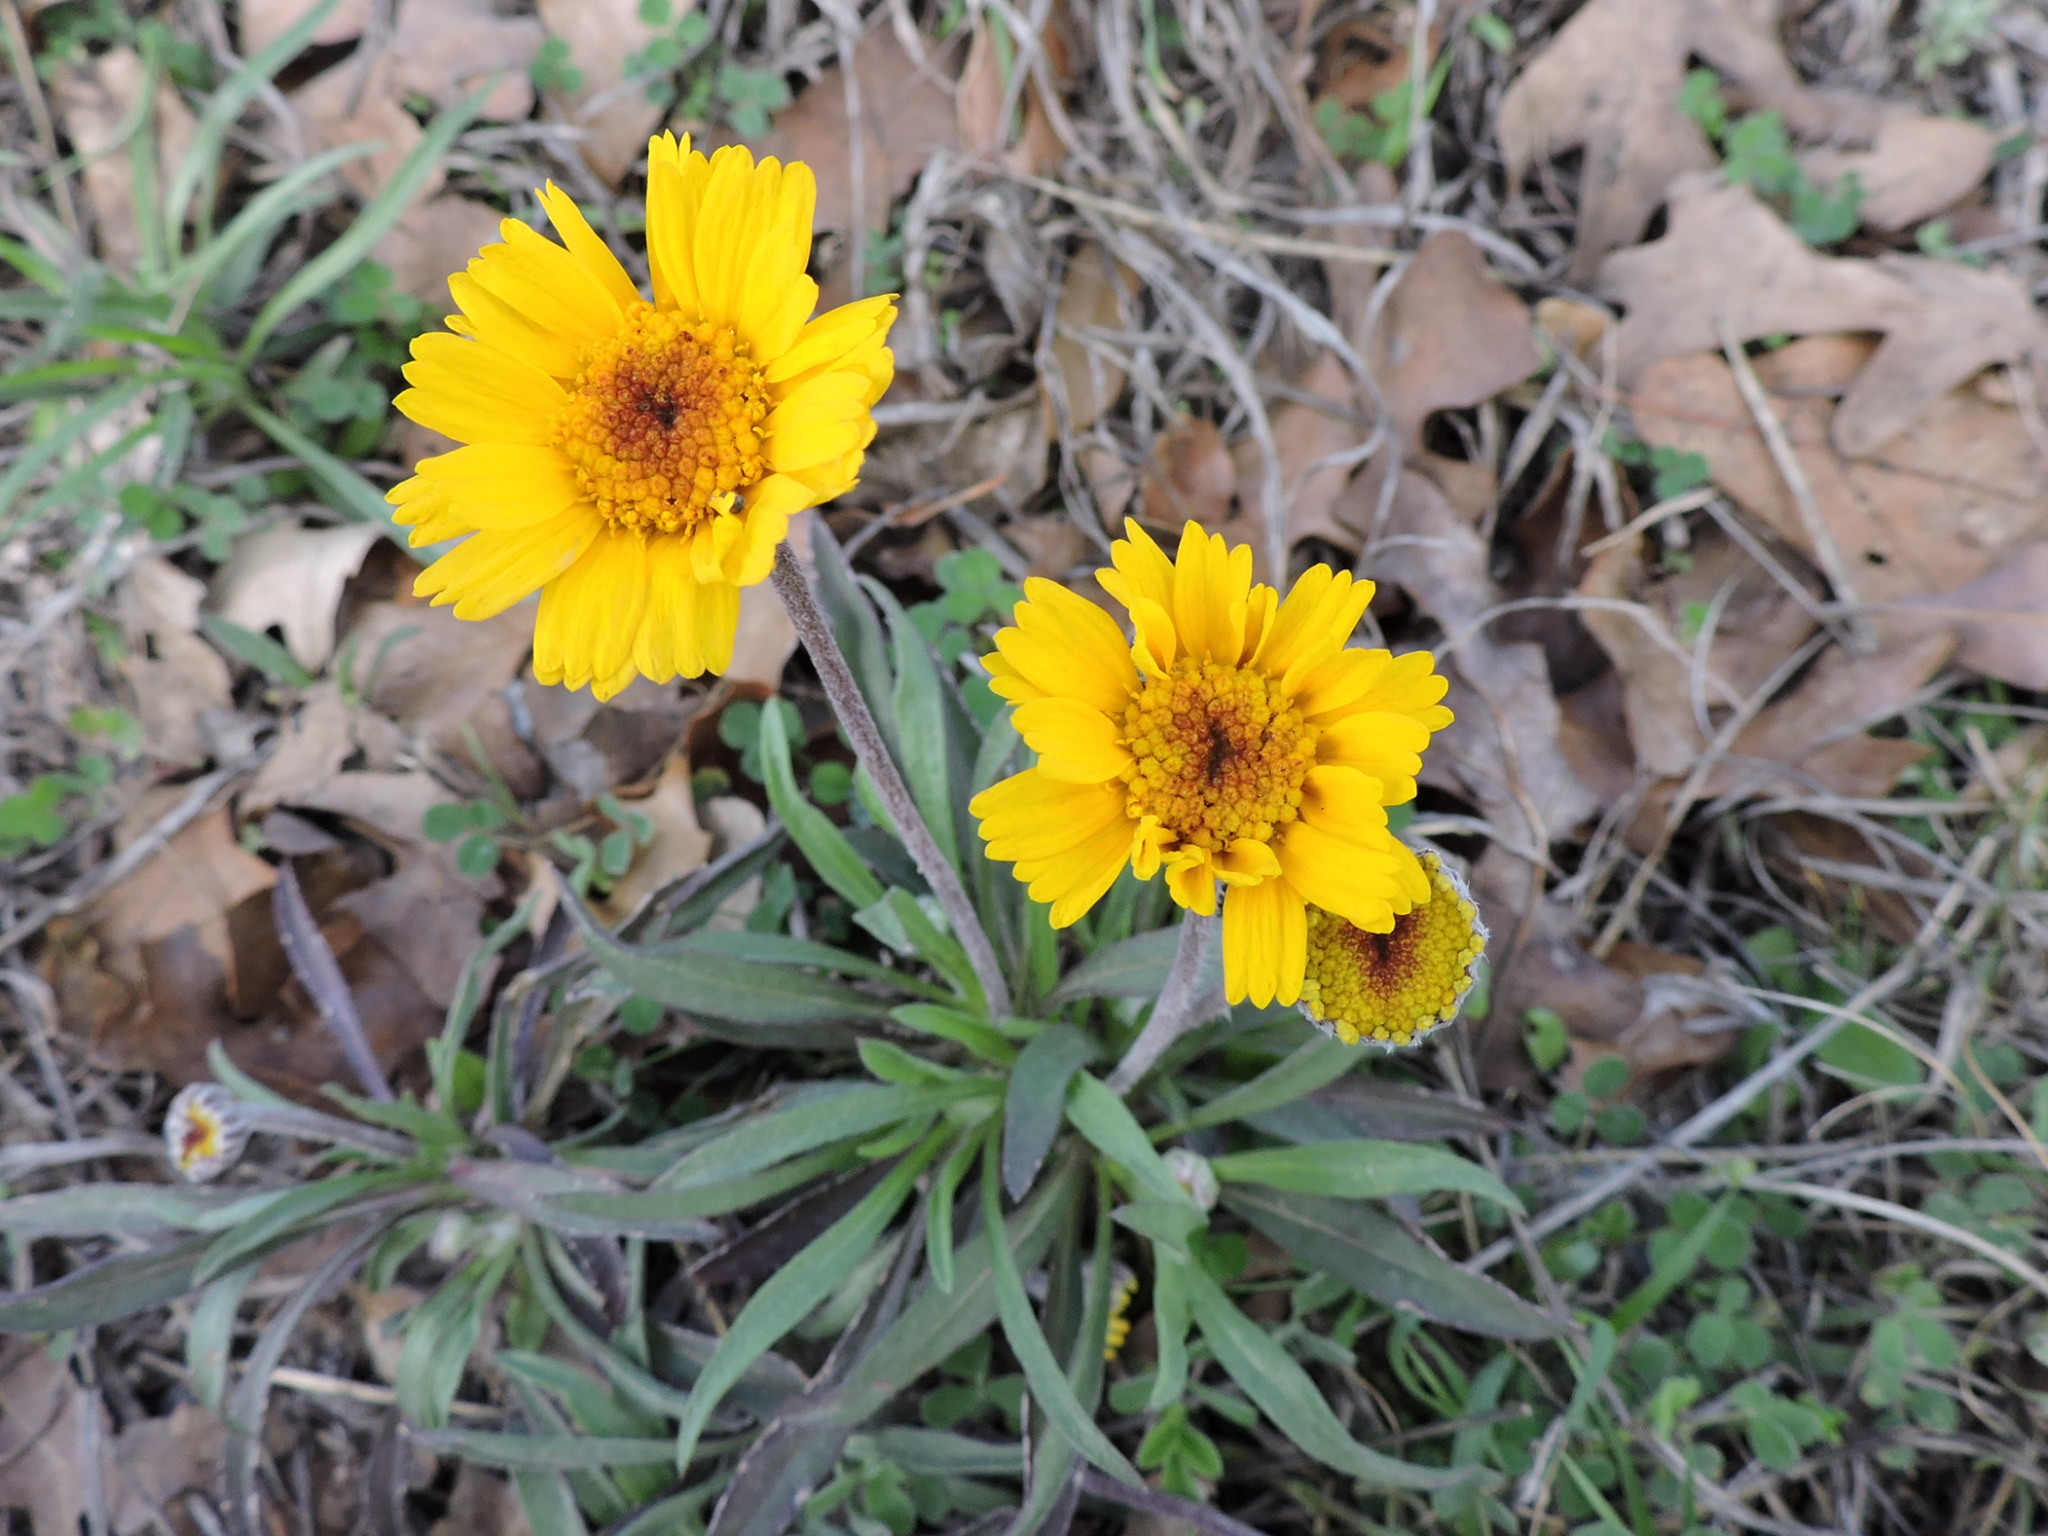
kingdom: Plantae
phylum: Tracheophyta
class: Magnoliopsida
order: Asterales
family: Asteraceae
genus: Tetraneuris
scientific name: Tetraneuris scaposa
